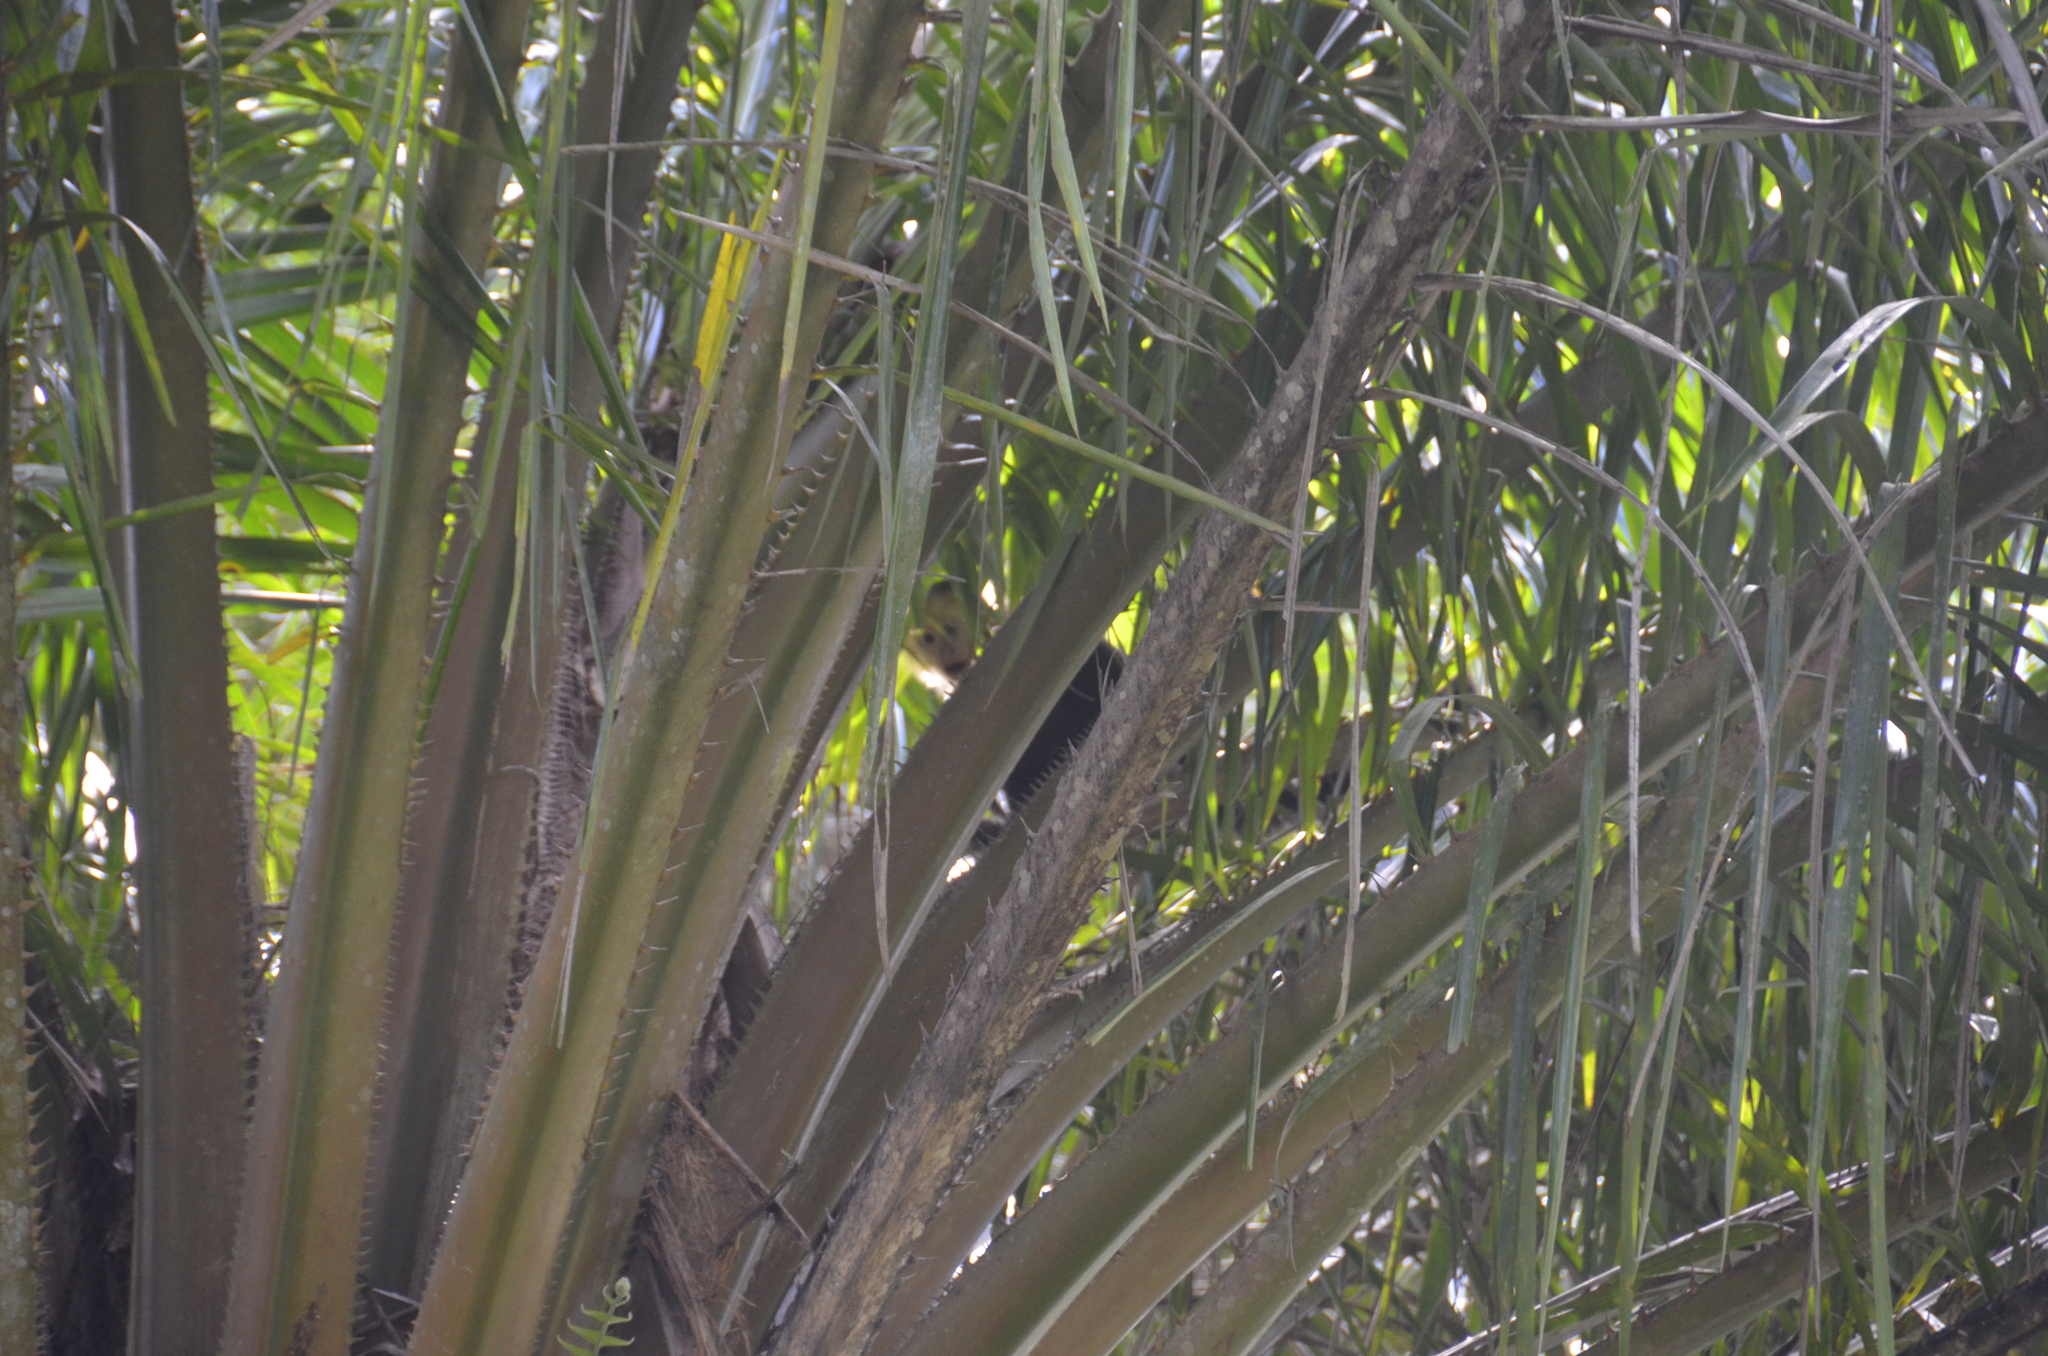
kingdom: Animalia
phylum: Chordata
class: Mammalia
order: Primates
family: Cebidae
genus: Cebus
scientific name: Cebus imitator
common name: Panamanian white-faced capuchin
